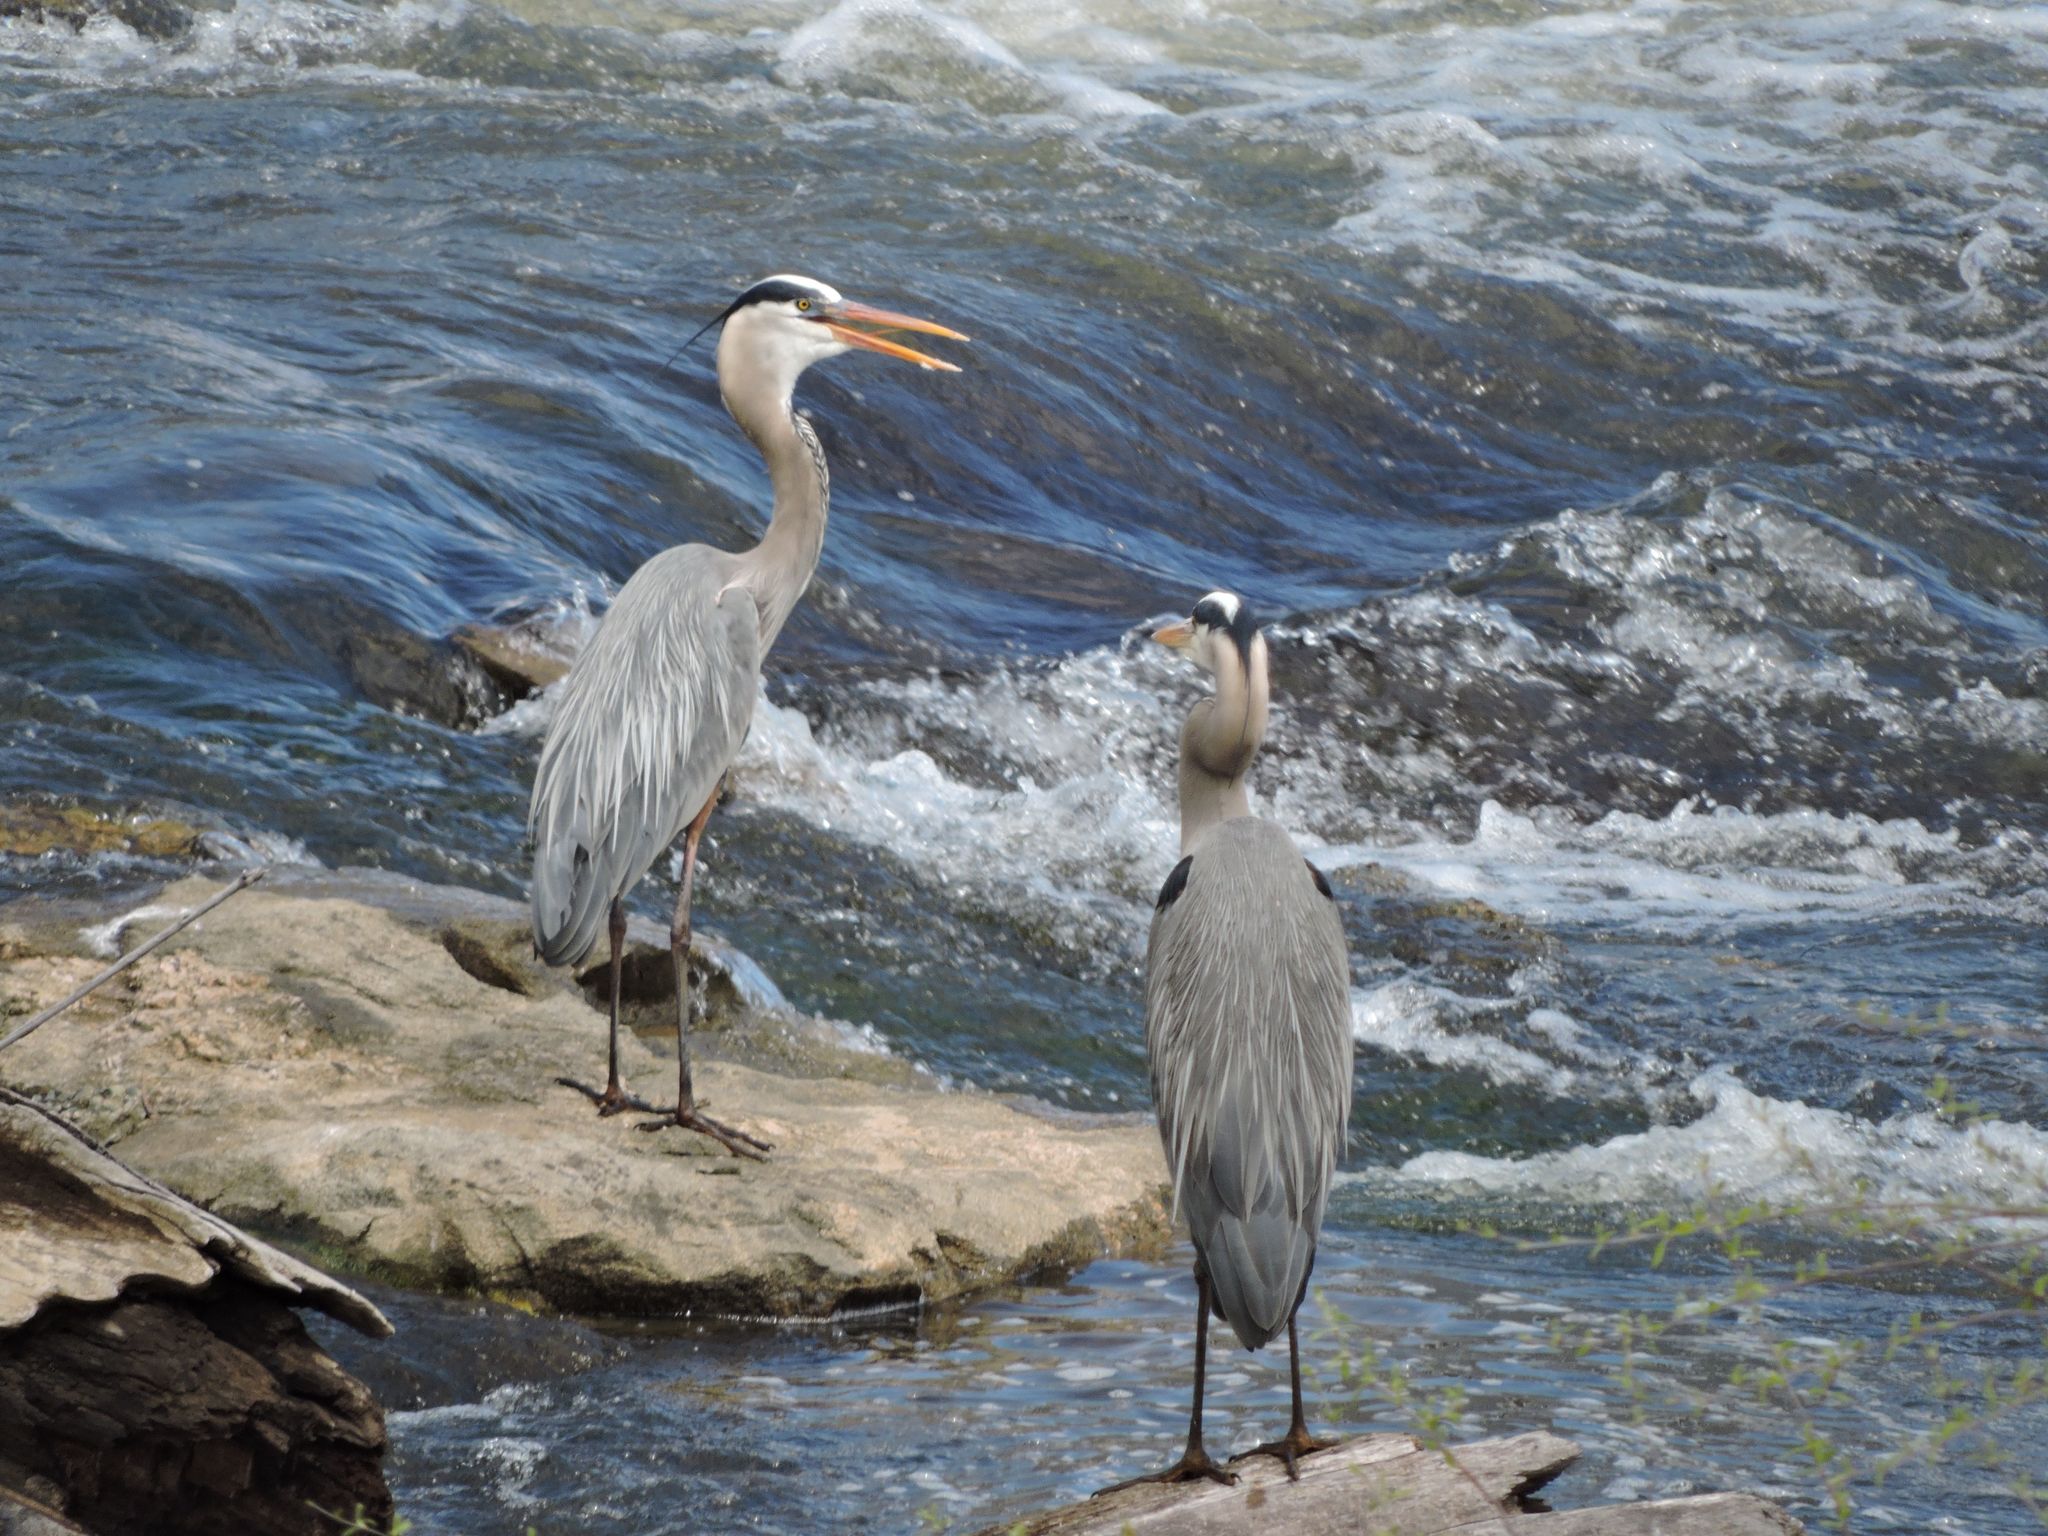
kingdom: Animalia
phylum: Chordata
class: Aves
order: Pelecaniformes
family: Ardeidae
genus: Ardea
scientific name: Ardea herodias
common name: Great blue heron
